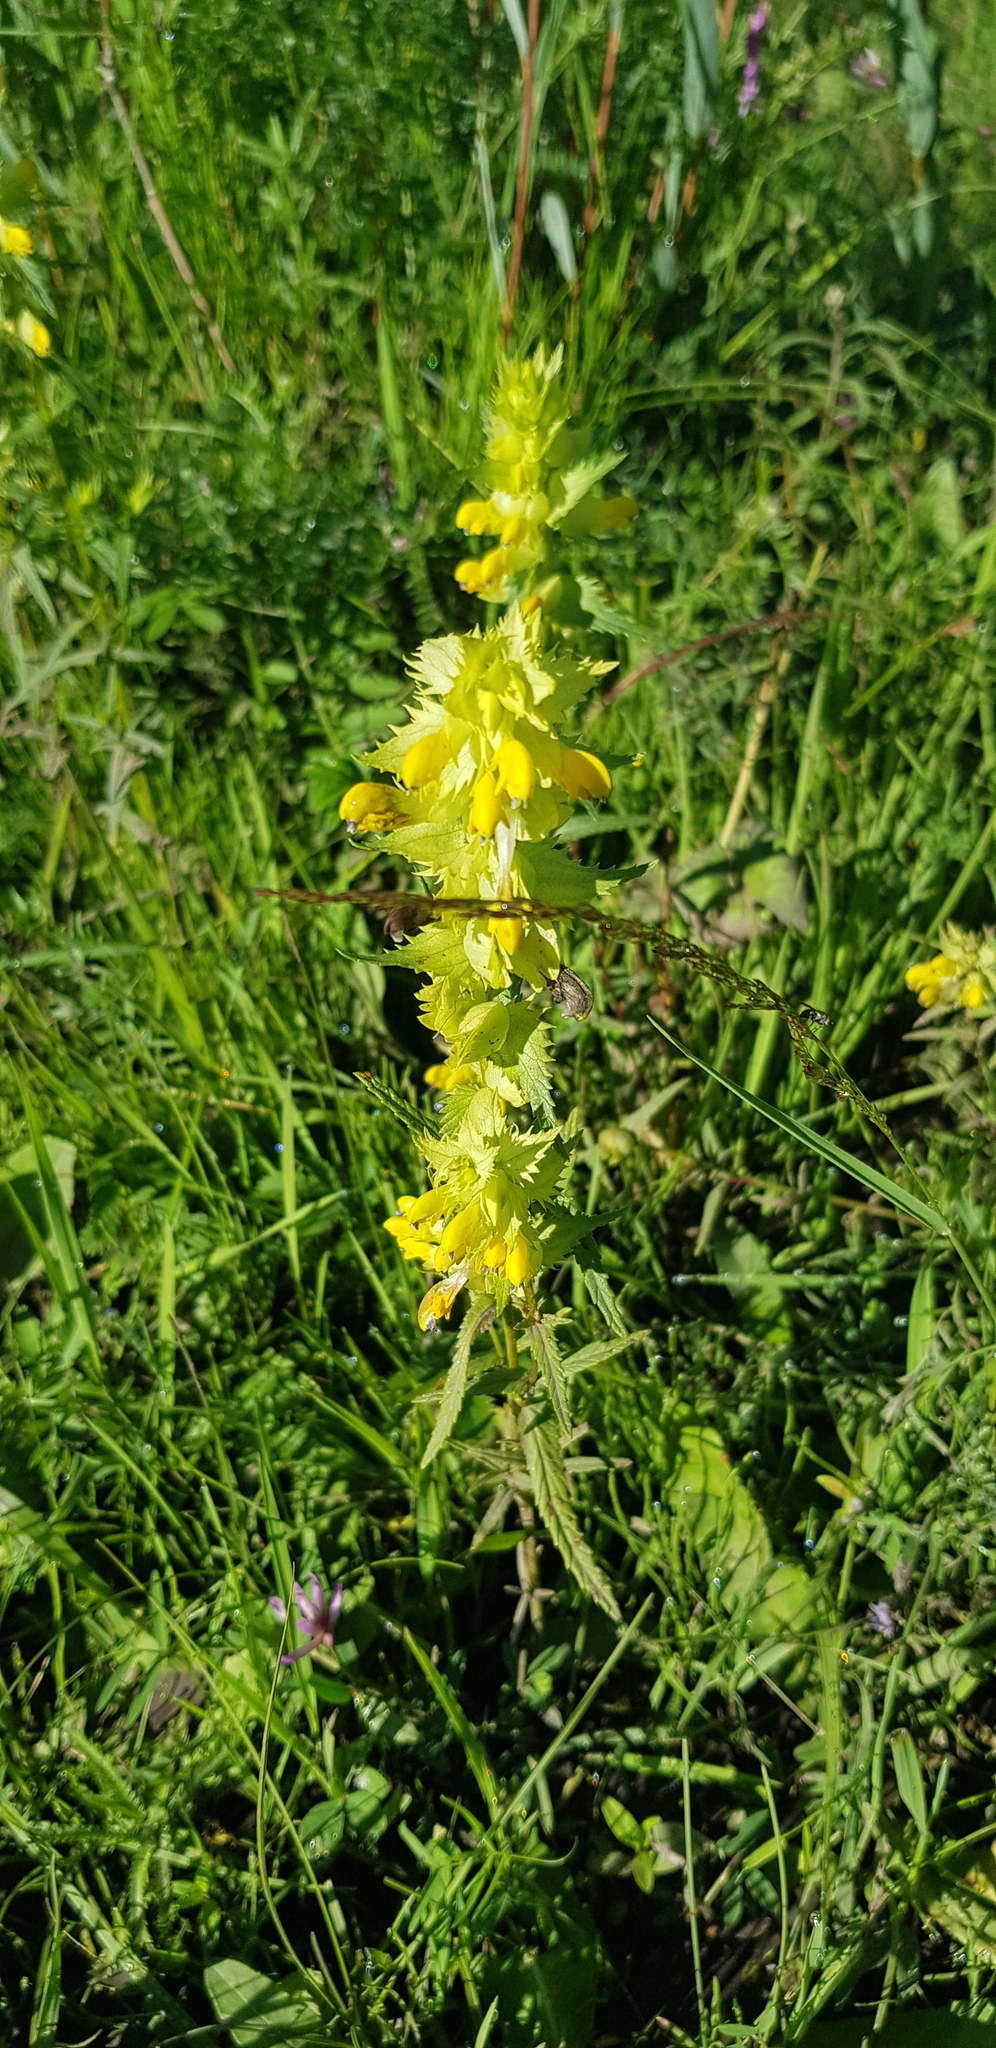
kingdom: Plantae
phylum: Tracheophyta
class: Magnoliopsida
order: Lamiales
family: Orobanchaceae
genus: Rhinanthus
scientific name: Rhinanthus serotinus
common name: Late-flowering yellow rattle
